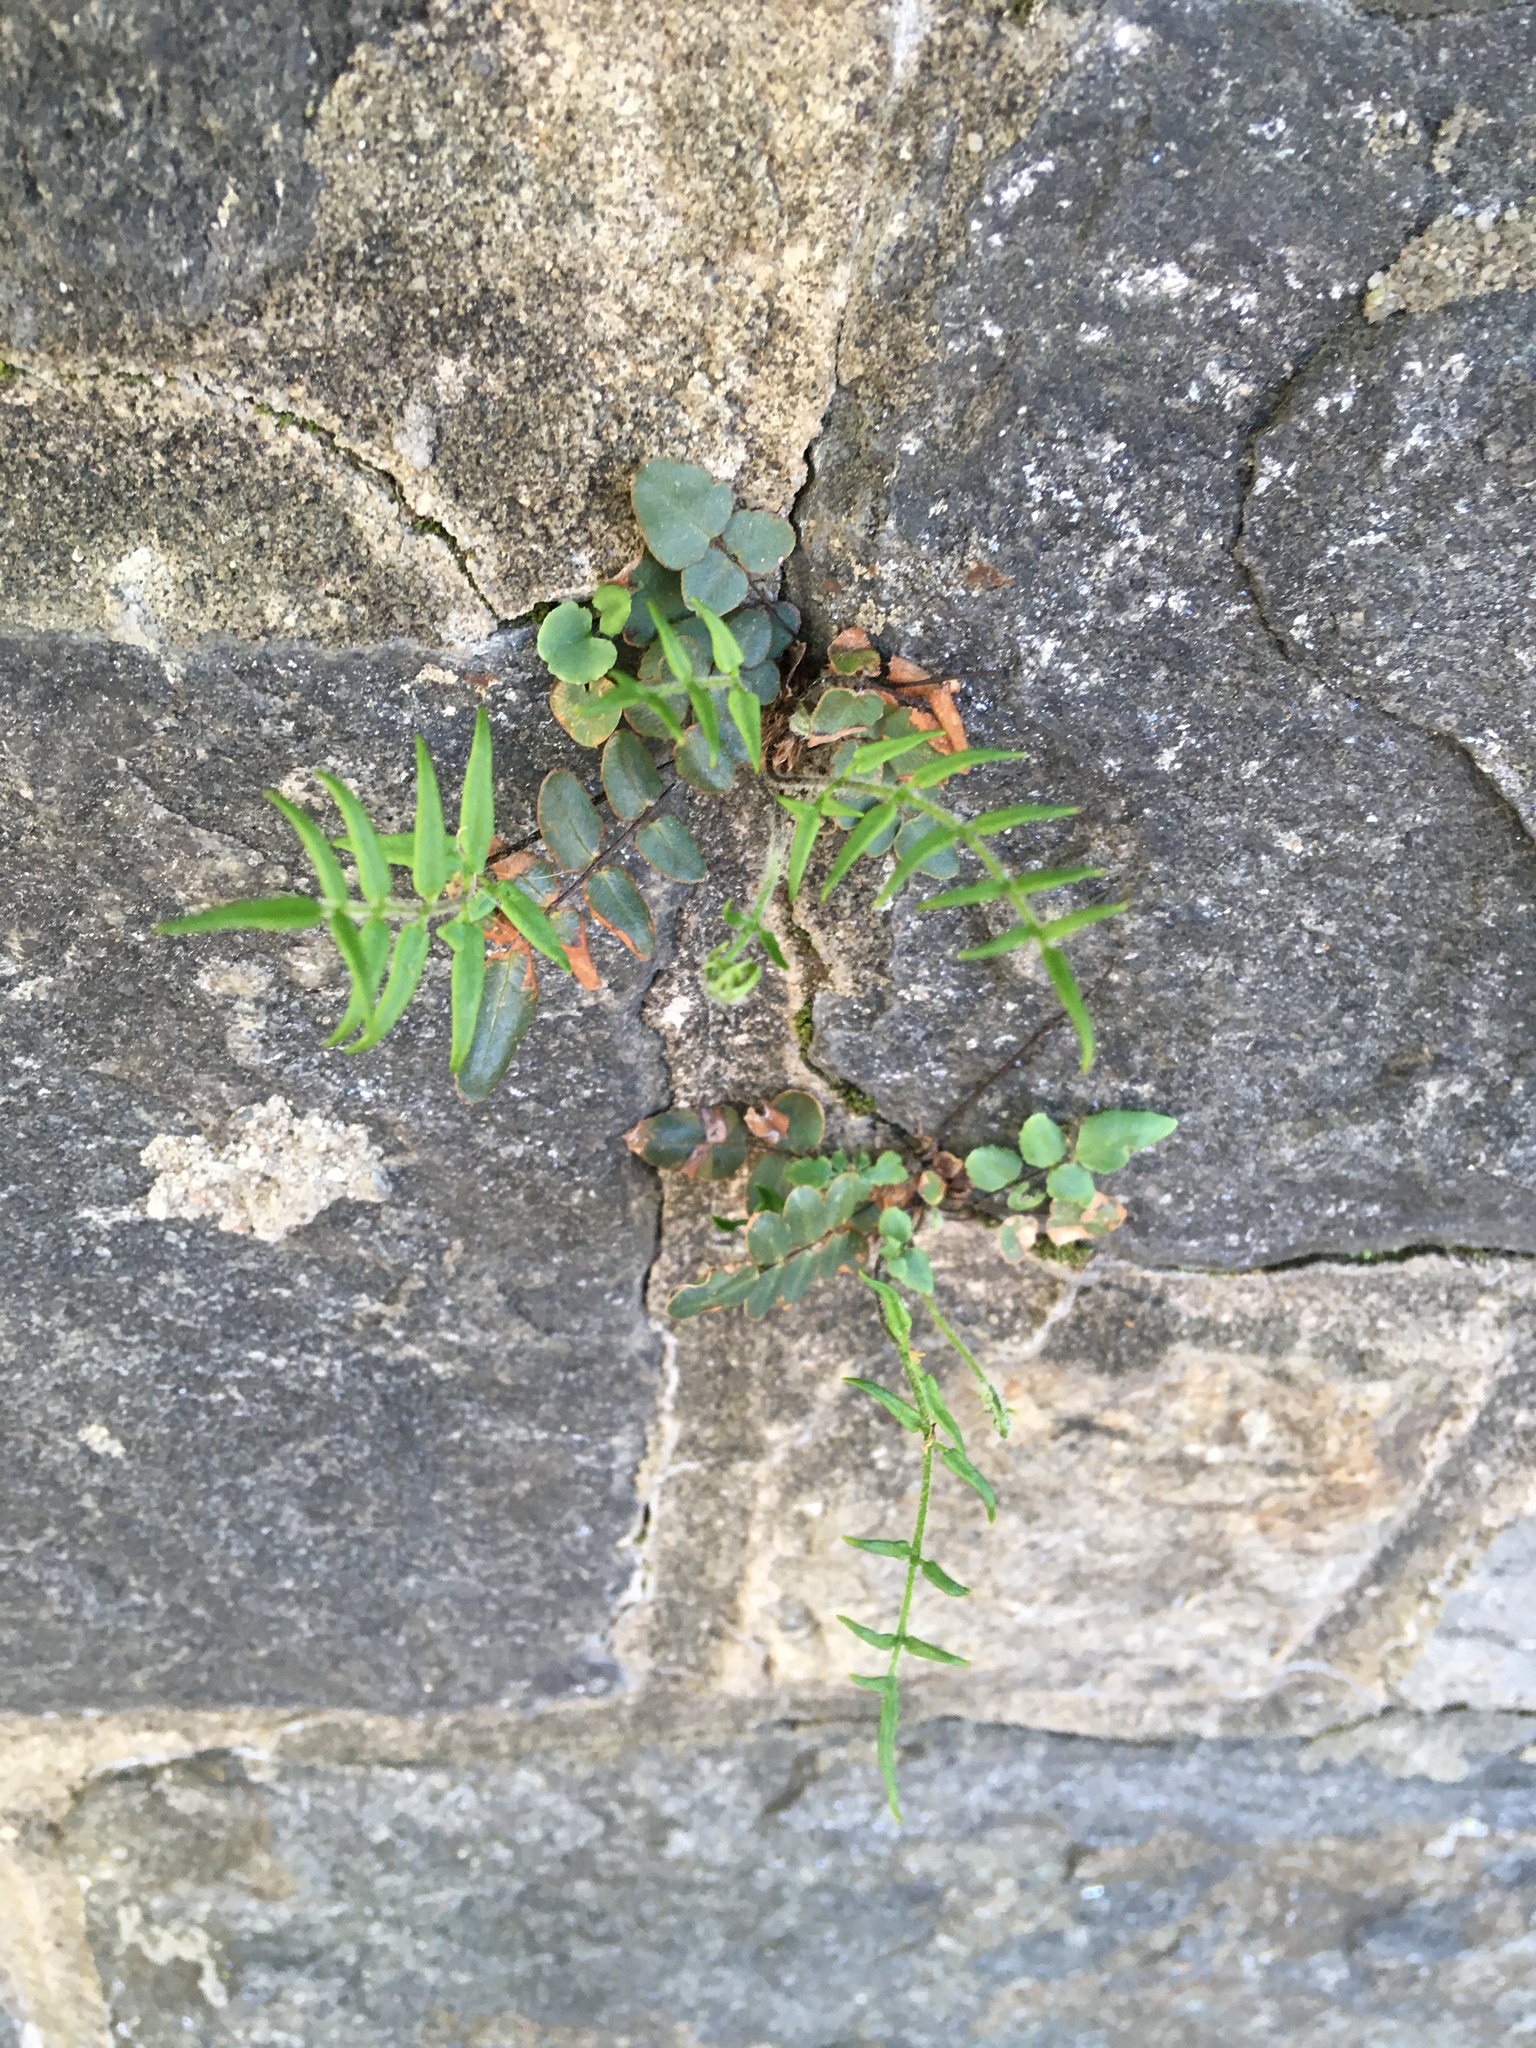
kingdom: Plantae
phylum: Tracheophyta
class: Polypodiopsida
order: Polypodiales
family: Pteridaceae
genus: Pellaea
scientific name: Pellaea atropurpurea
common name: Hairy cliffbrake
